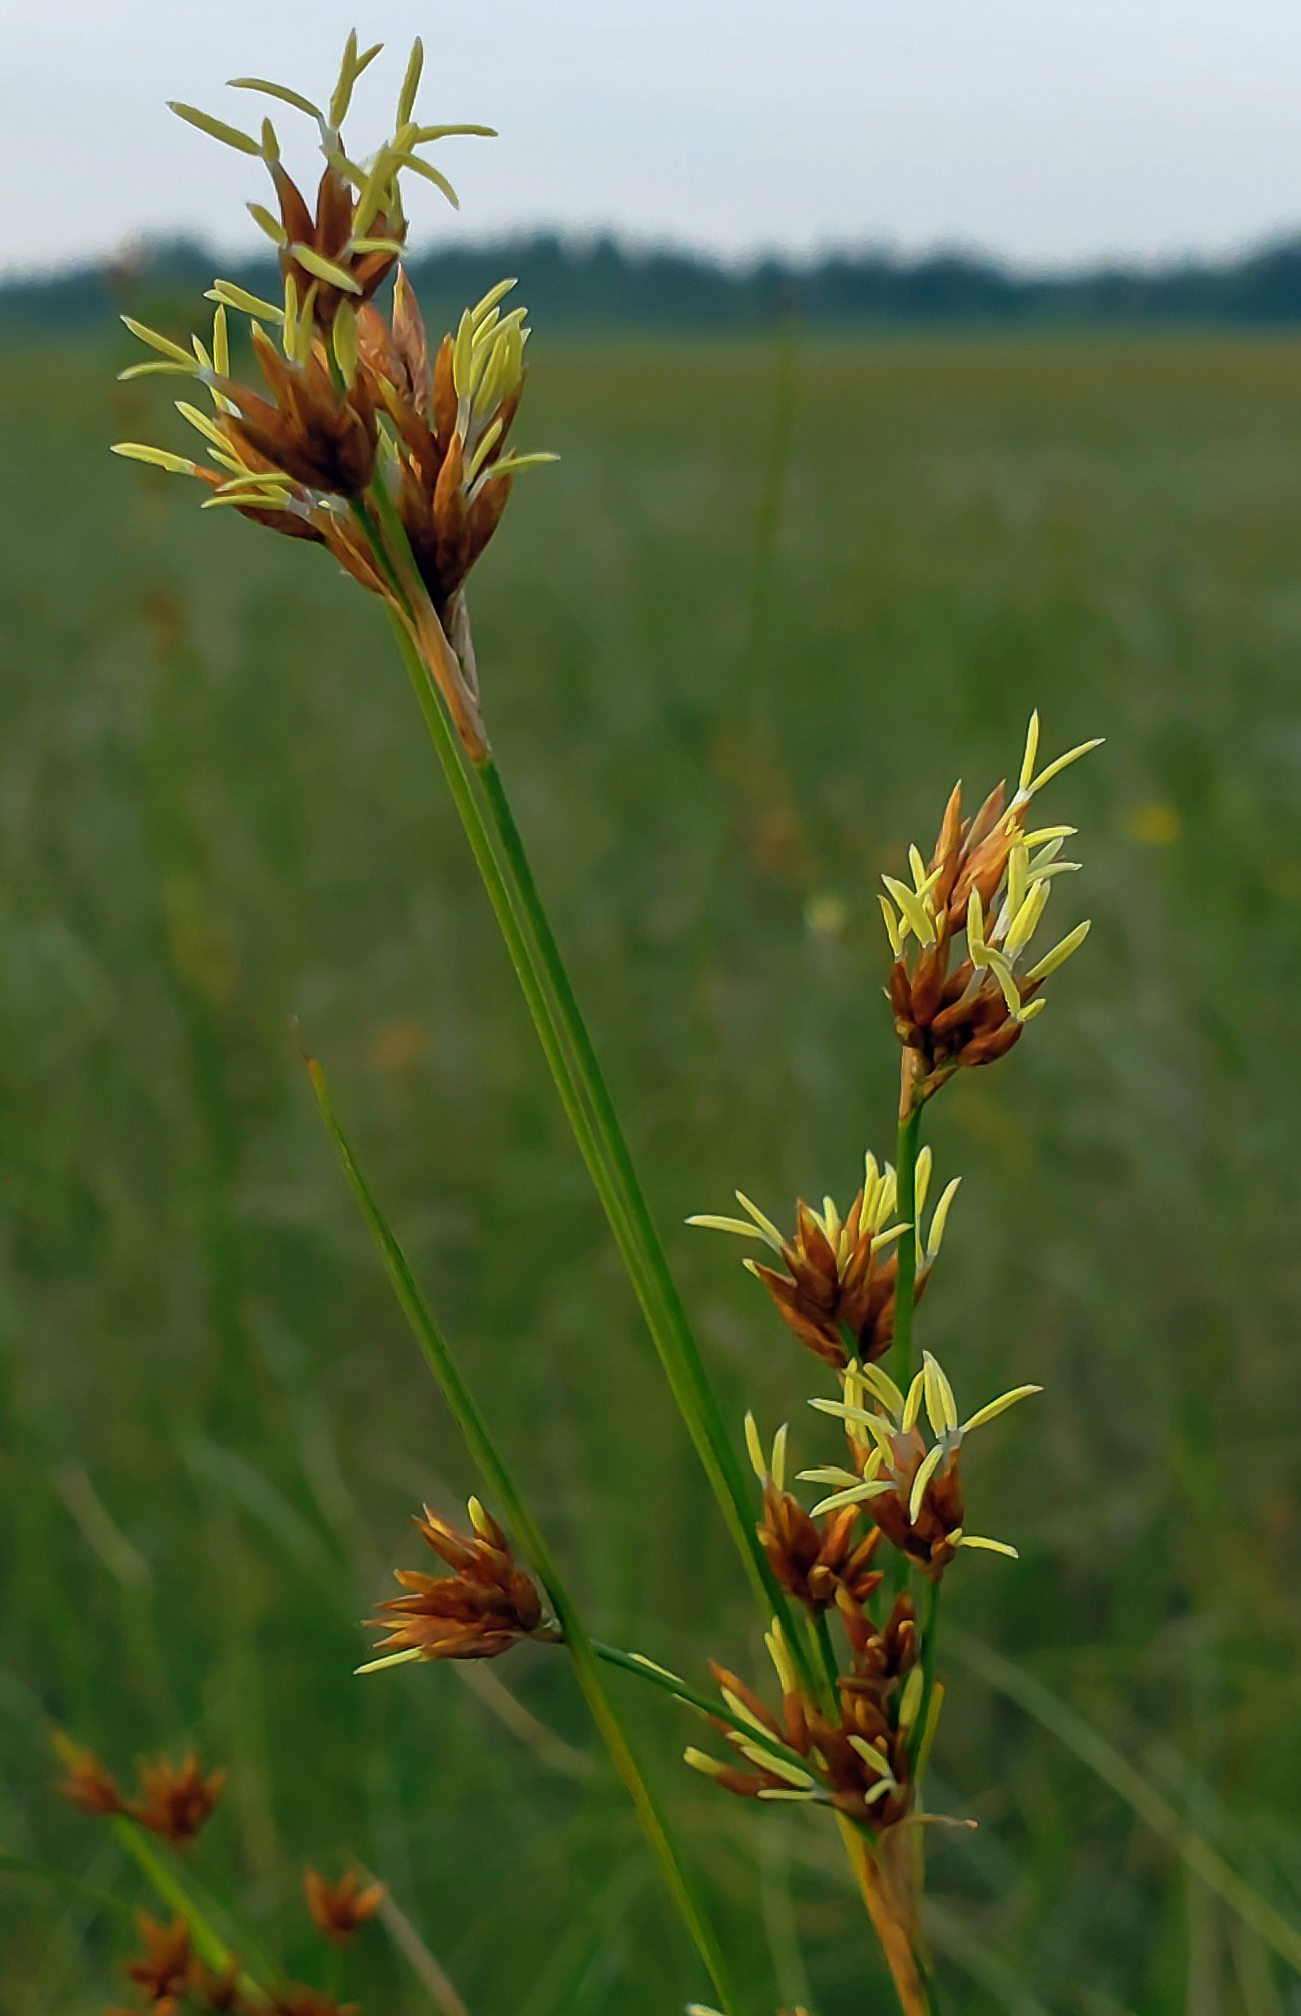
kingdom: Plantae
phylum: Tracheophyta
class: Liliopsida
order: Poales
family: Cyperaceae
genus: Cladium
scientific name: Cladium mariscoides
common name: Smooth sawgrass
